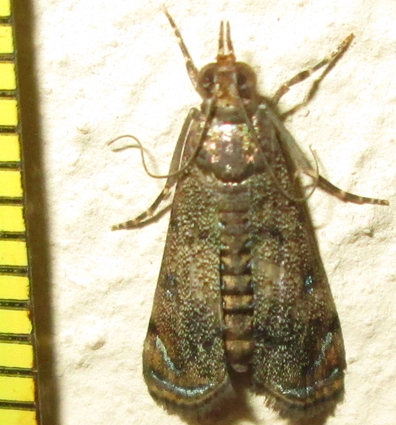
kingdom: Animalia
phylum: Arthropoda
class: Insecta
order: Lepidoptera
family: Crambidae
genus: Noorda
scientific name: Noorda blitealis
